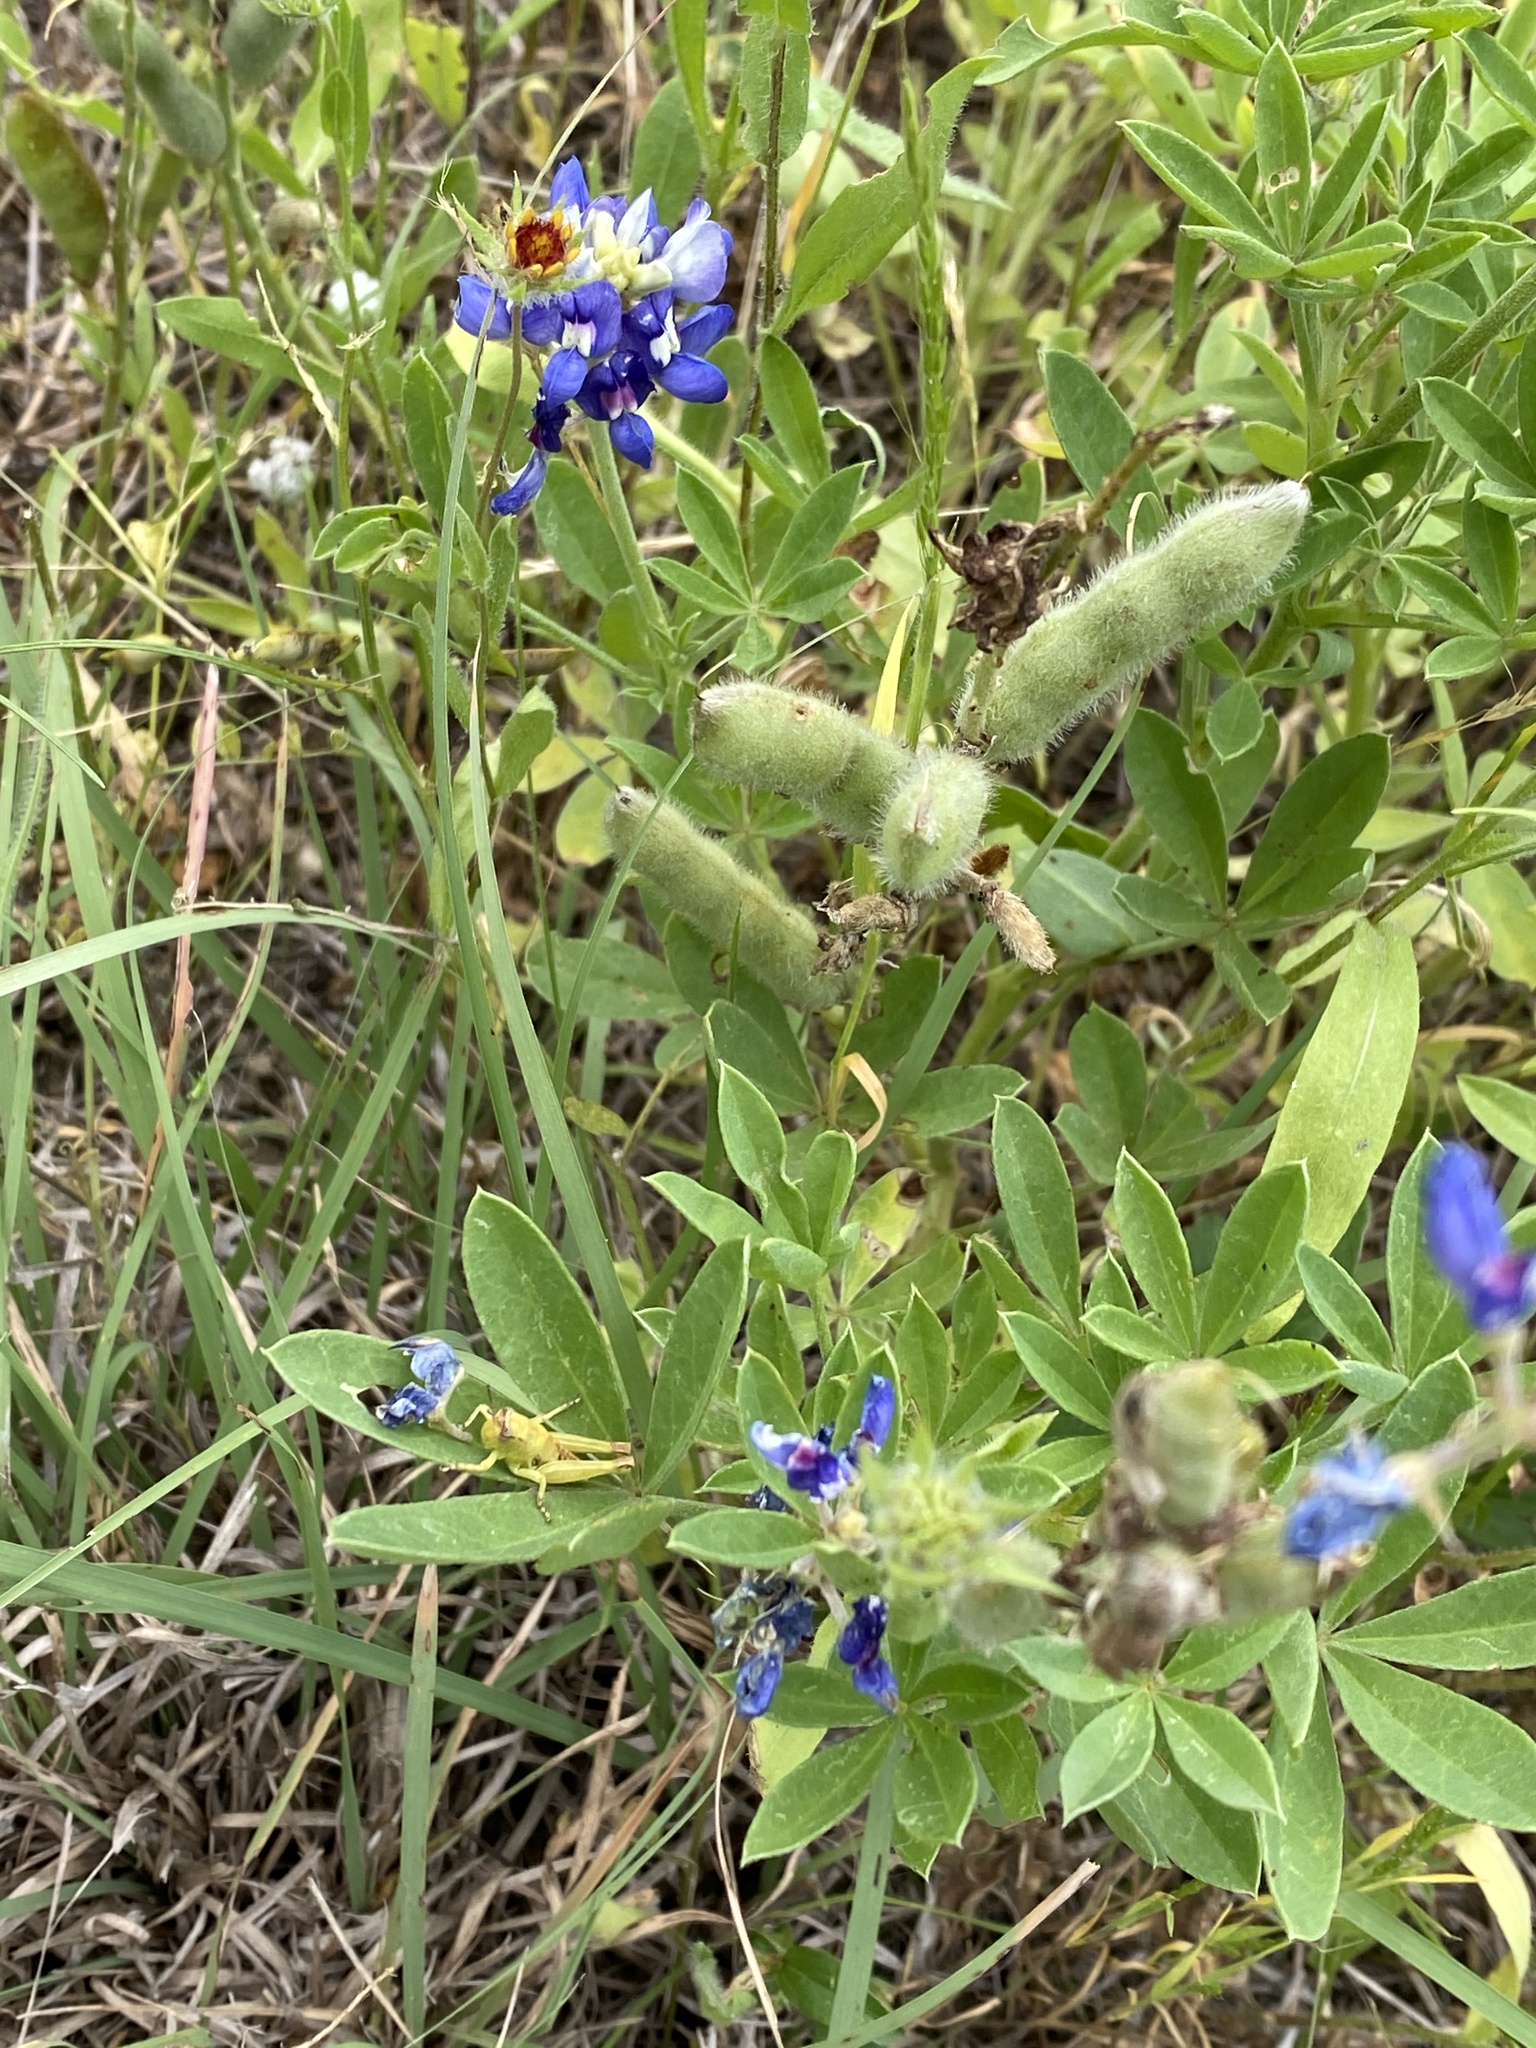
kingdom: Plantae
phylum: Tracheophyta
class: Magnoliopsida
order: Fabales
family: Fabaceae
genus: Lupinus
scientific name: Lupinus texensis
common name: Texas bluebonnet
